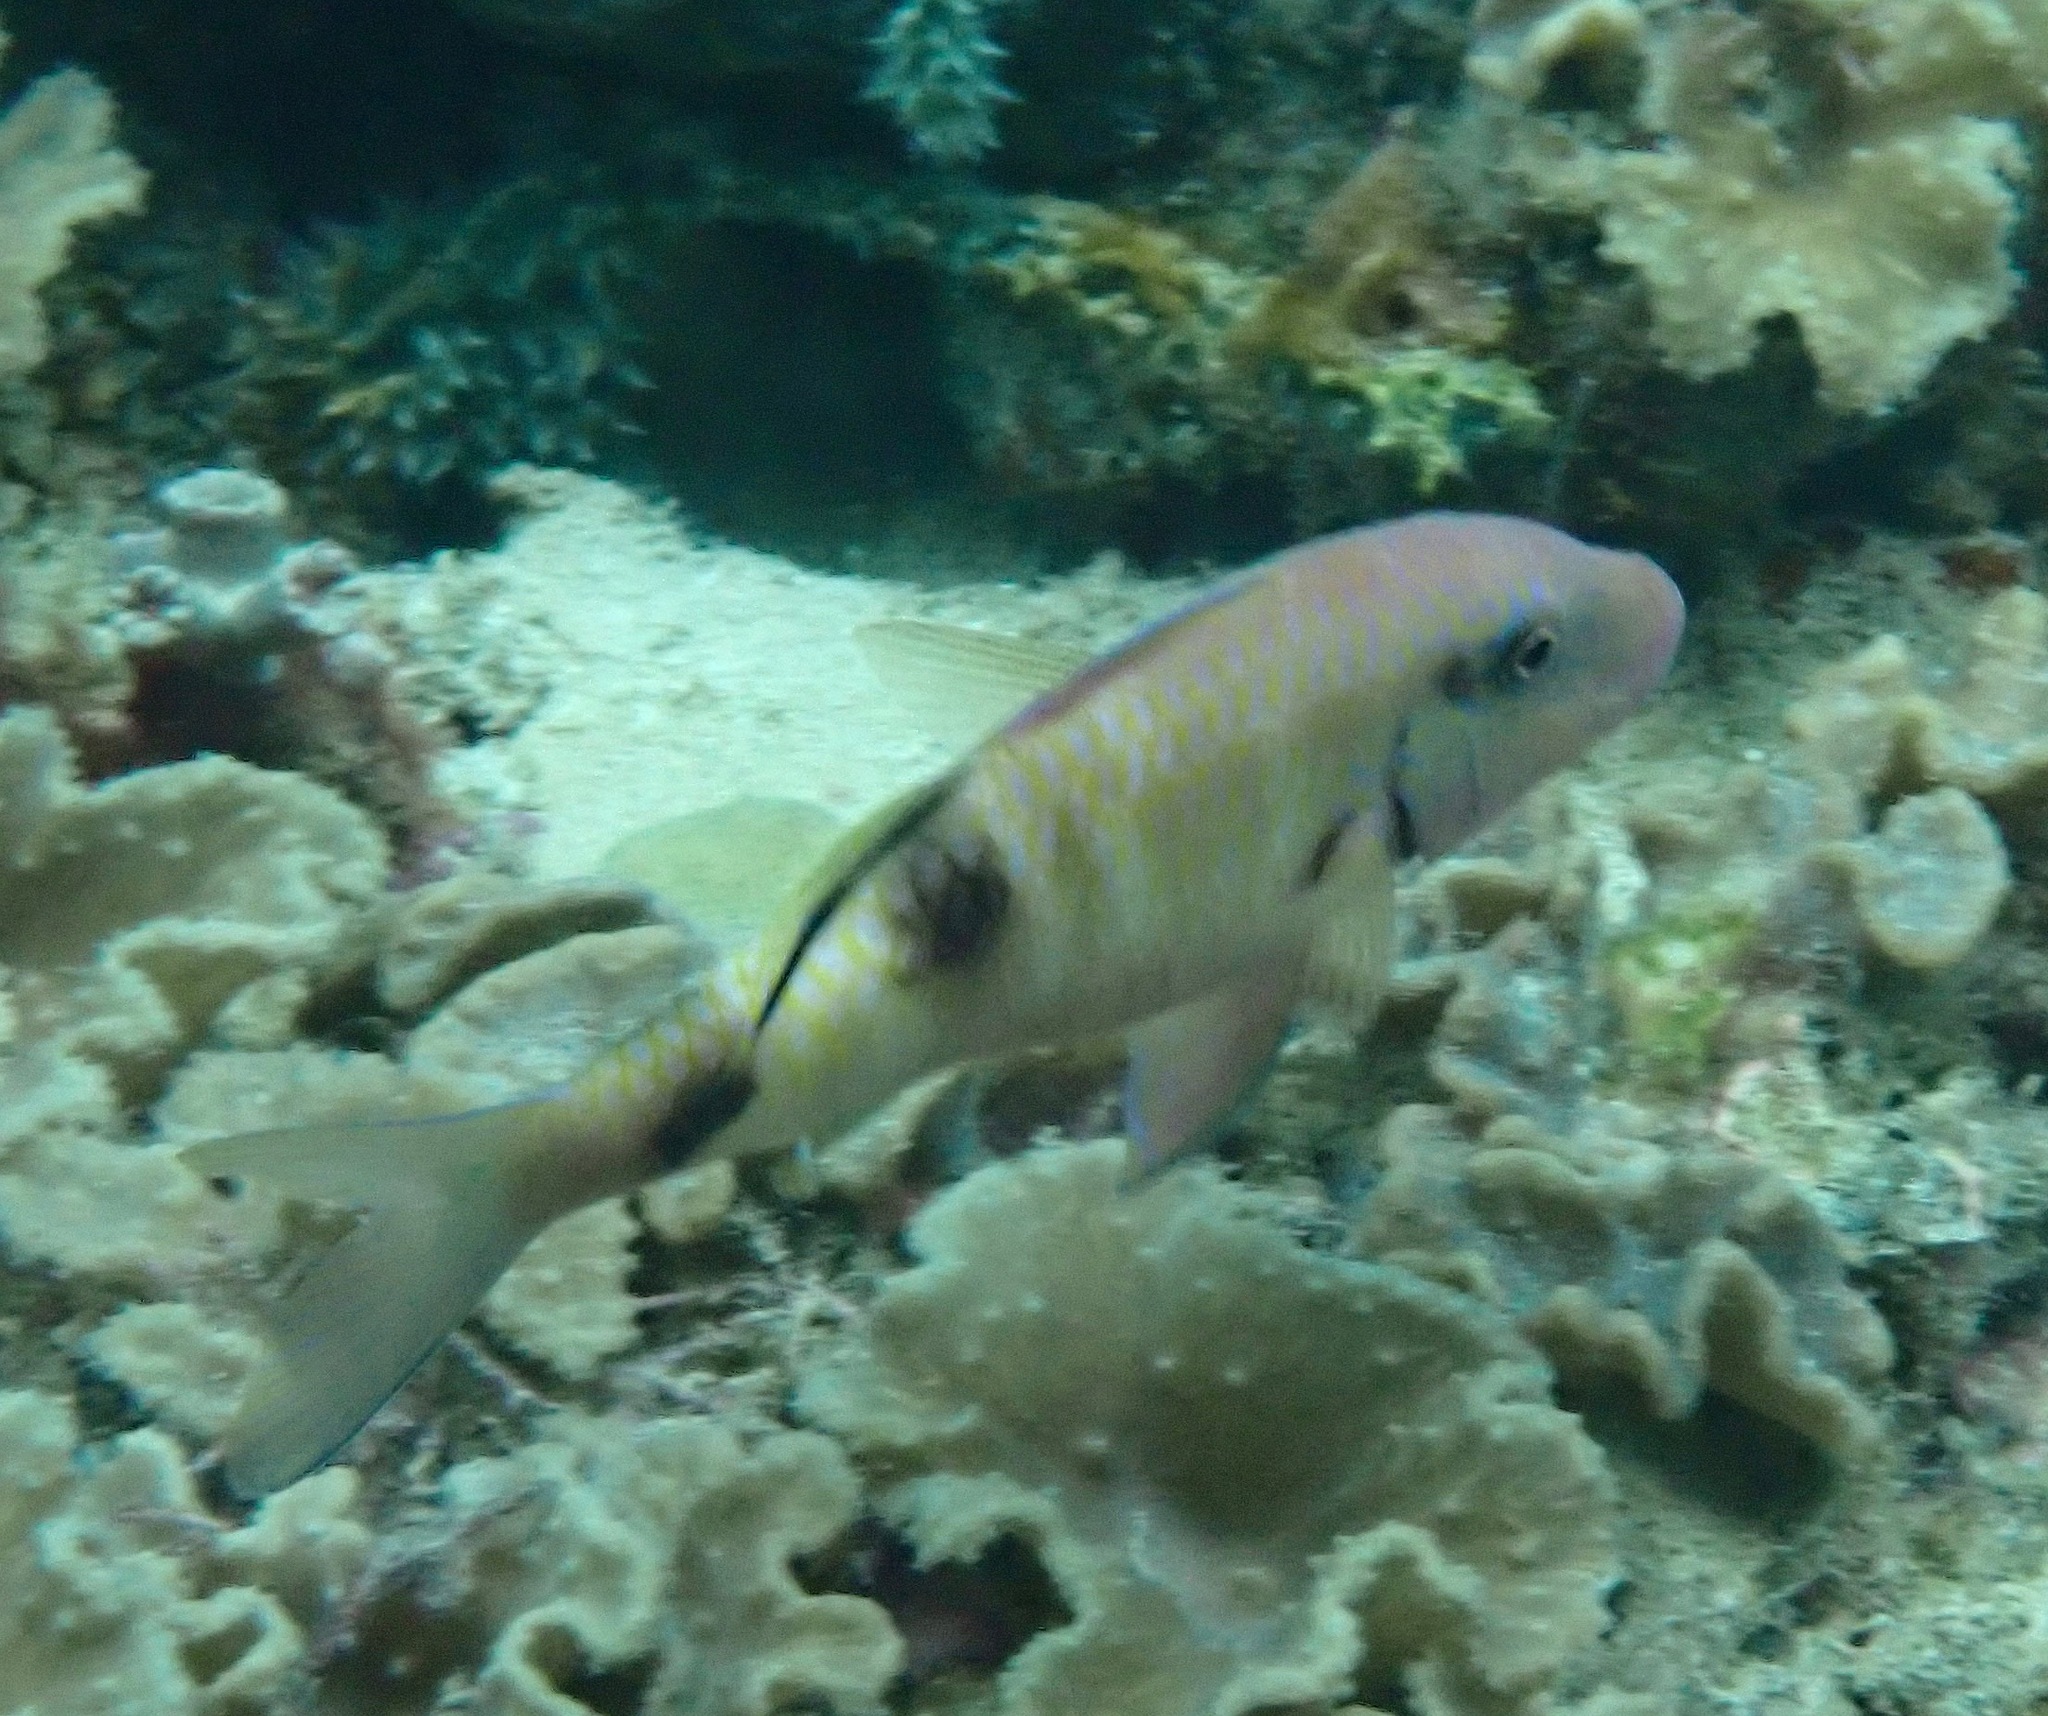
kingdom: Animalia
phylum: Chordata
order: Perciformes
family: Mullidae
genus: Parupeneus
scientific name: Parupeneus multifasciatus
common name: Manybar goatfish
